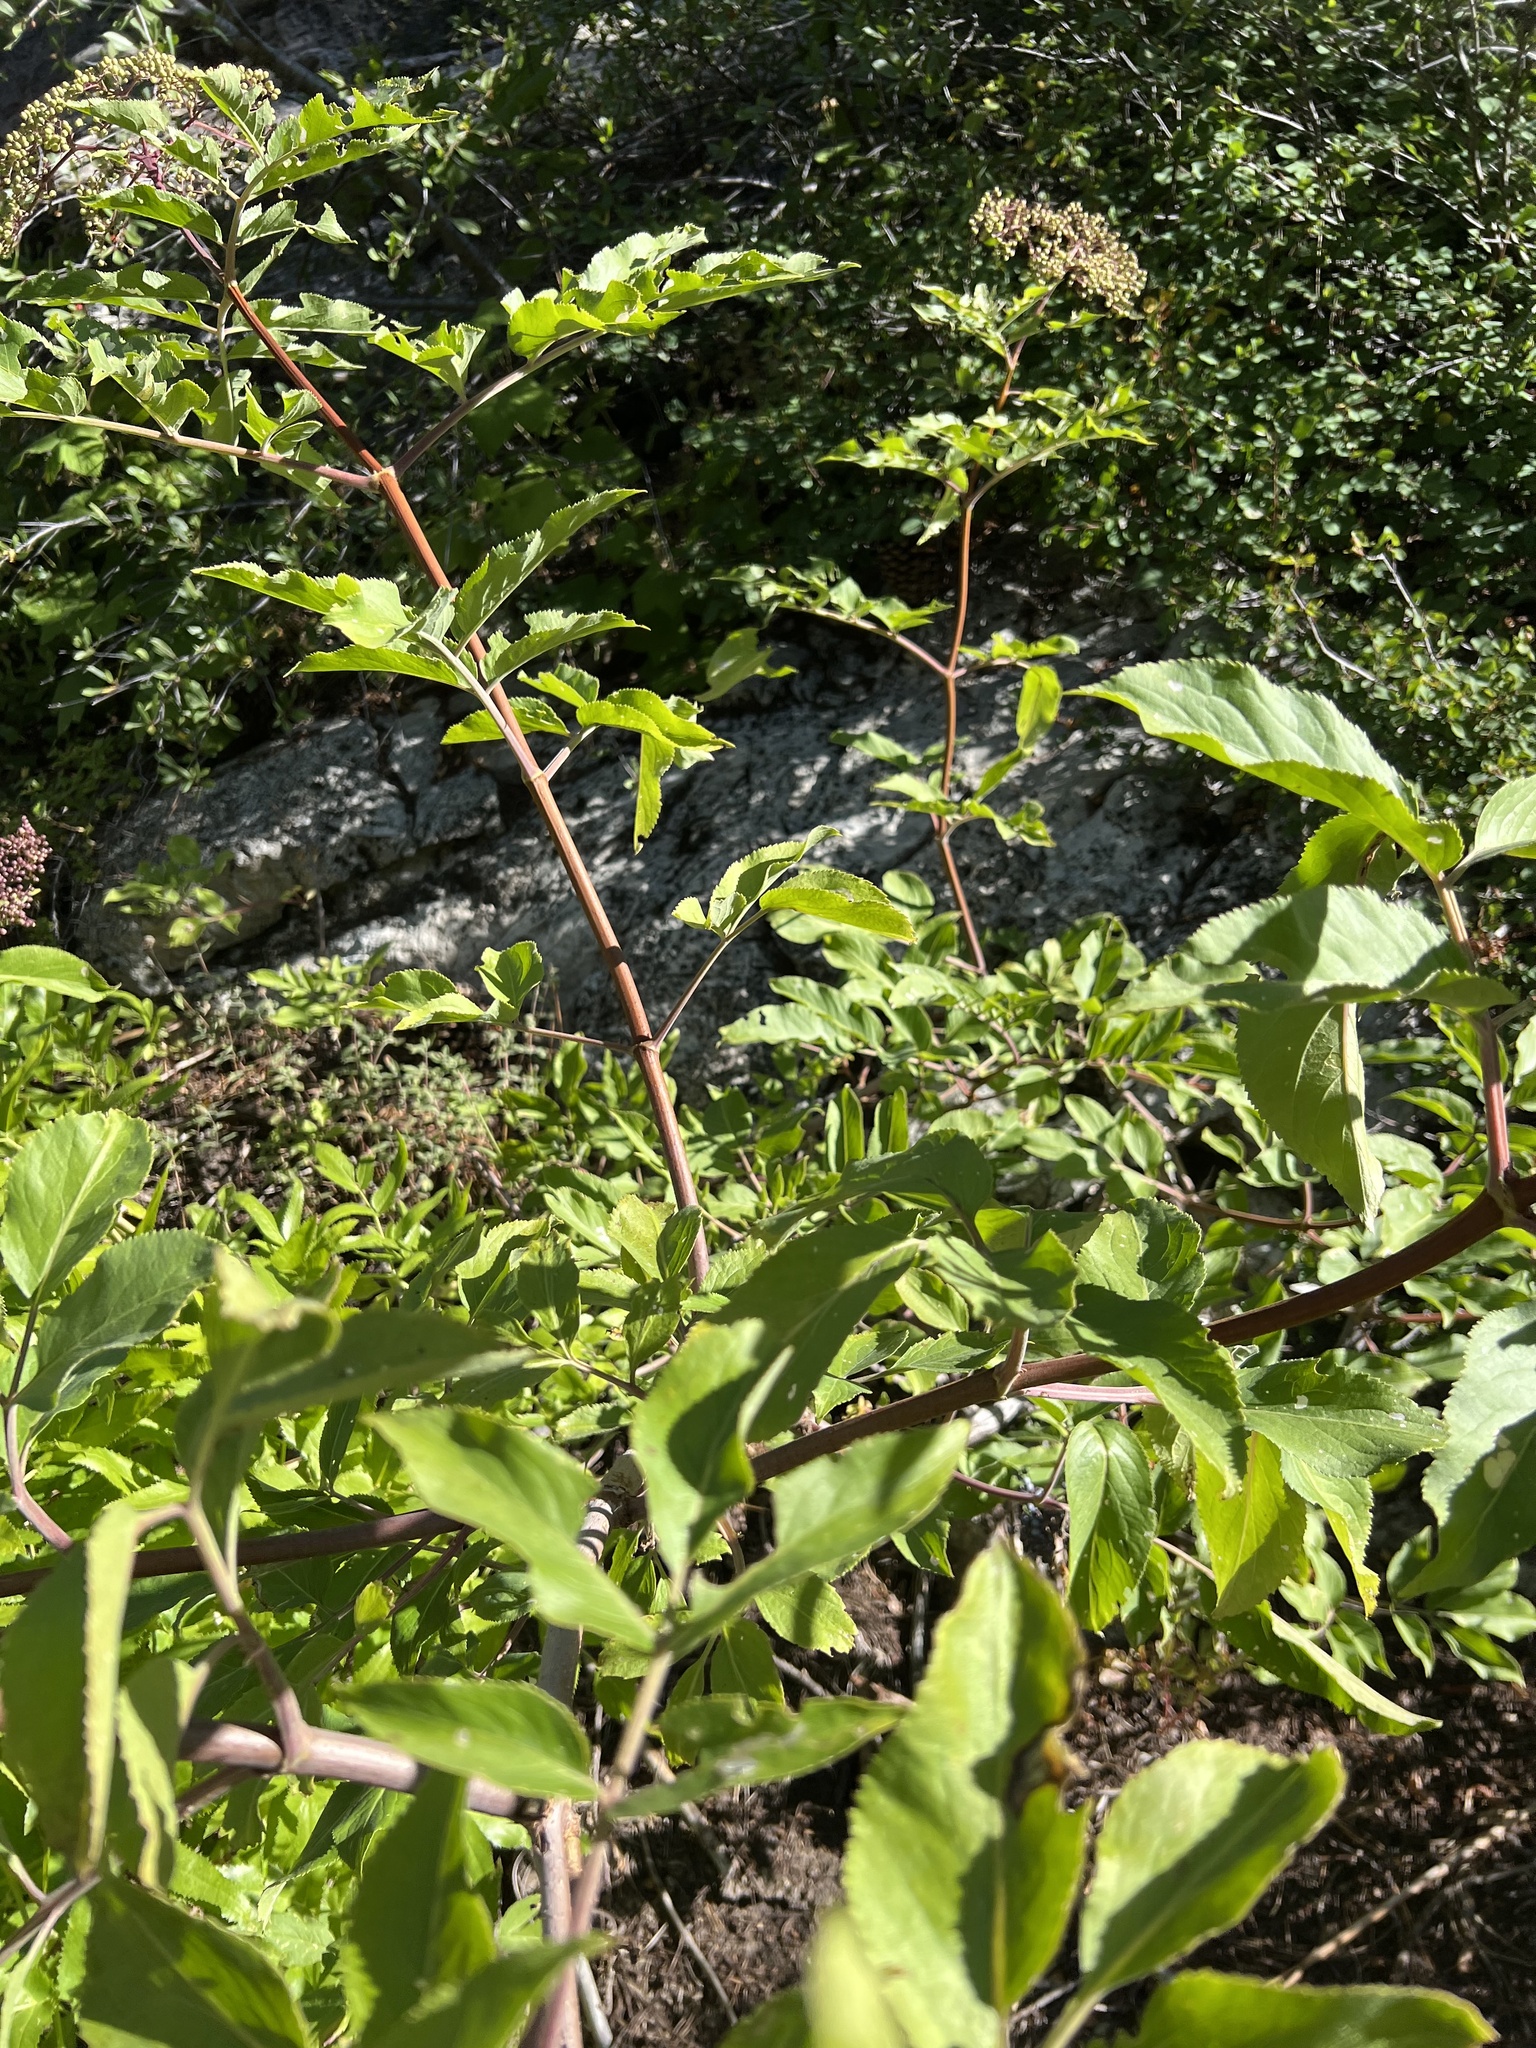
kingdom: Plantae
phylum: Tracheophyta
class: Magnoliopsida
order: Dipsacales
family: Viburnaceae
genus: Sambucus
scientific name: Sambucus cerulea
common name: Blue elder
